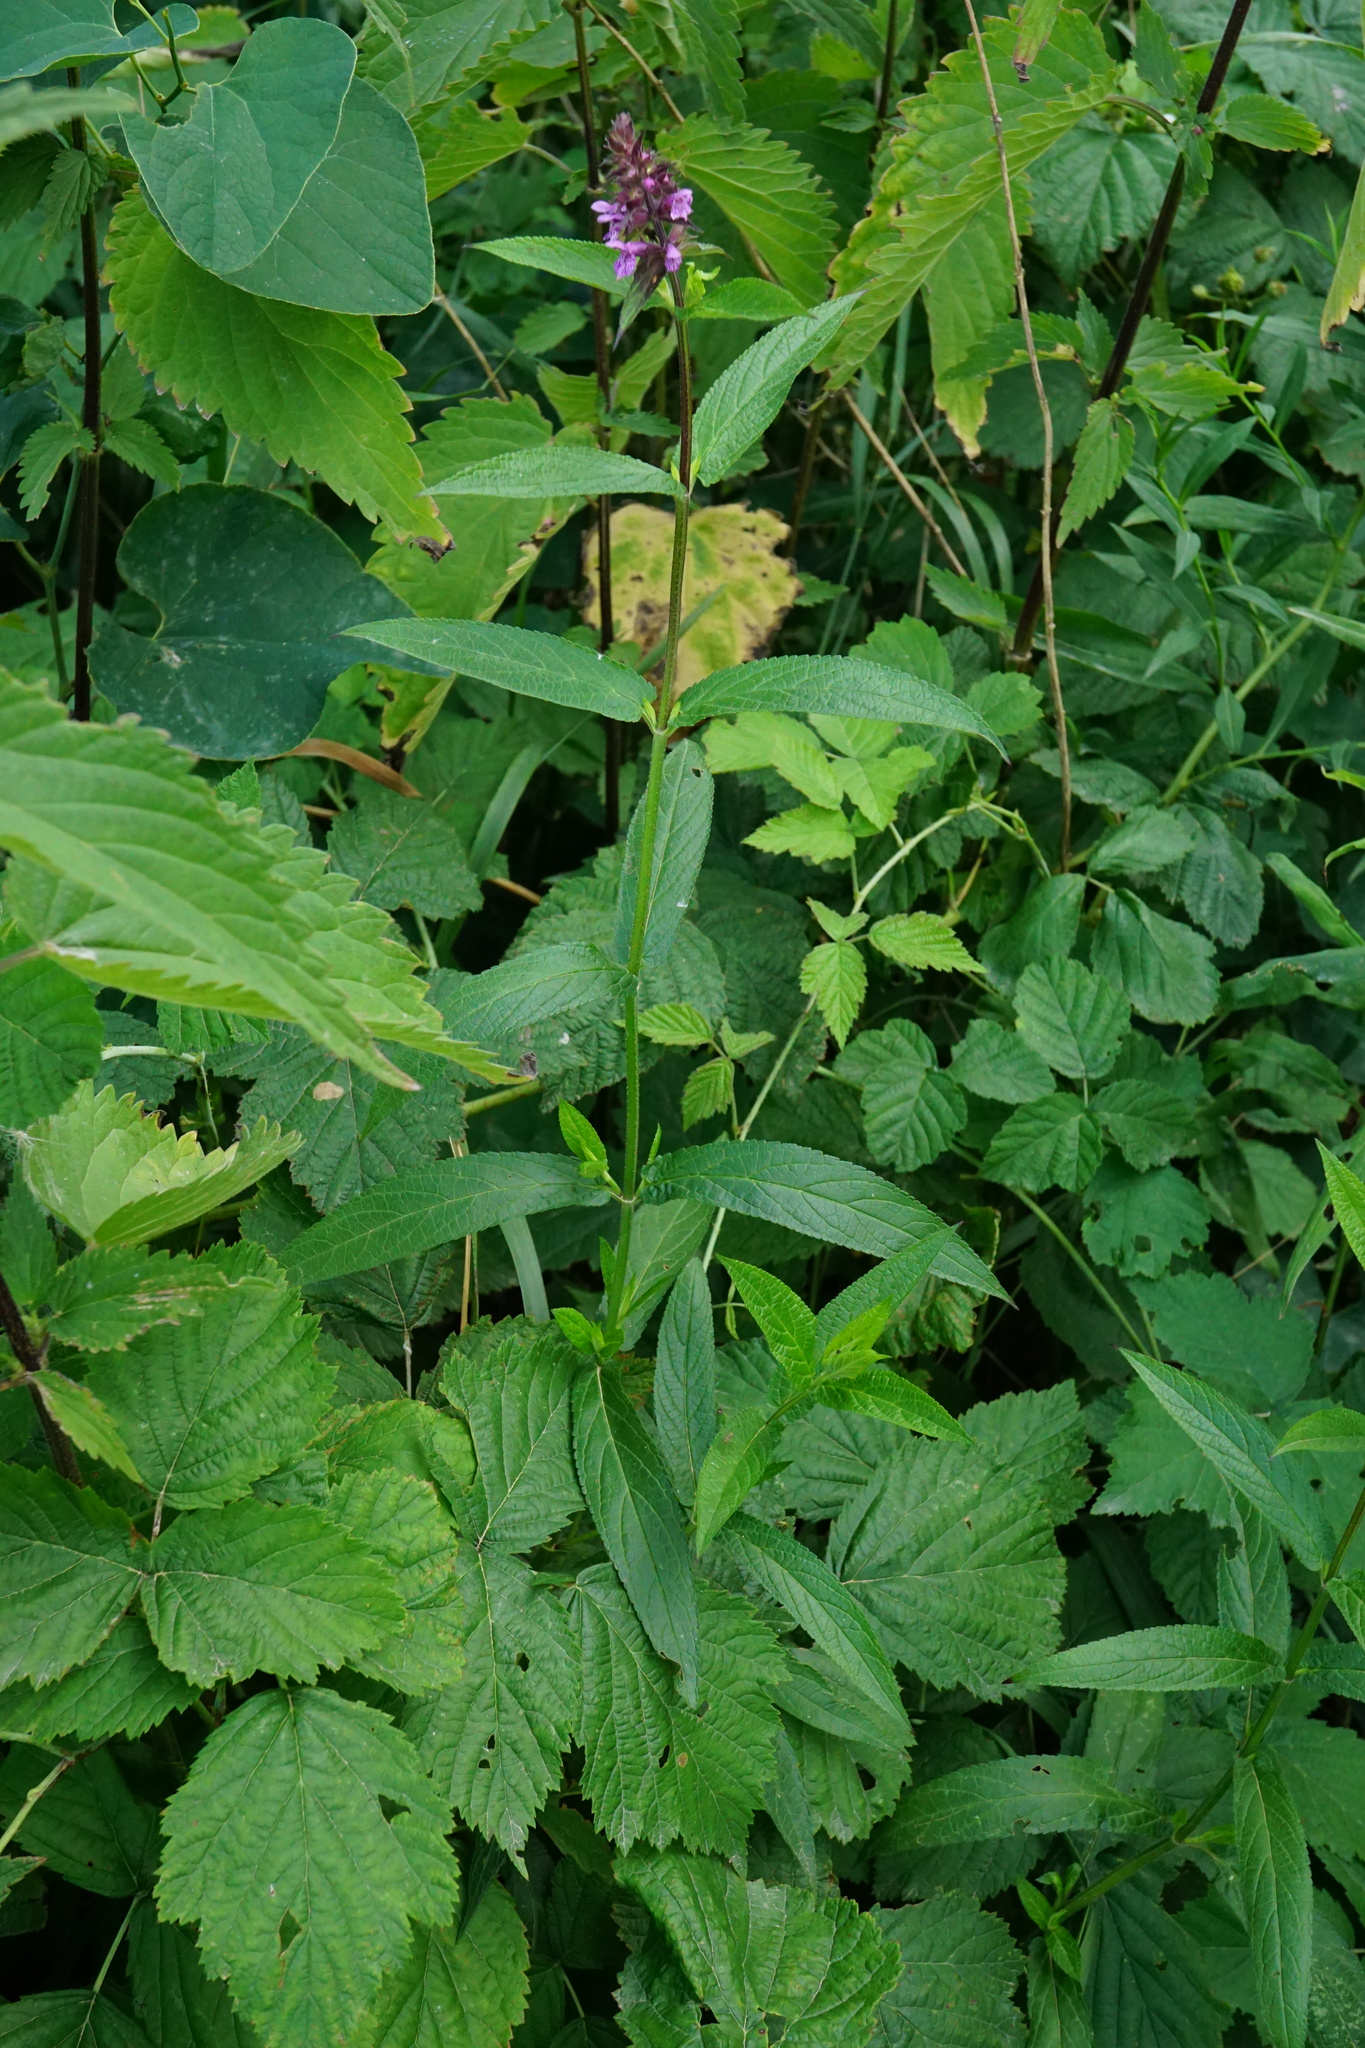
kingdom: Plantae
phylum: Tracheophyta
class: Magnoliopsida
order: Lamiales
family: Lamiaceae
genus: Stachys
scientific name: Stachys palustris
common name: Marsh woundwort
